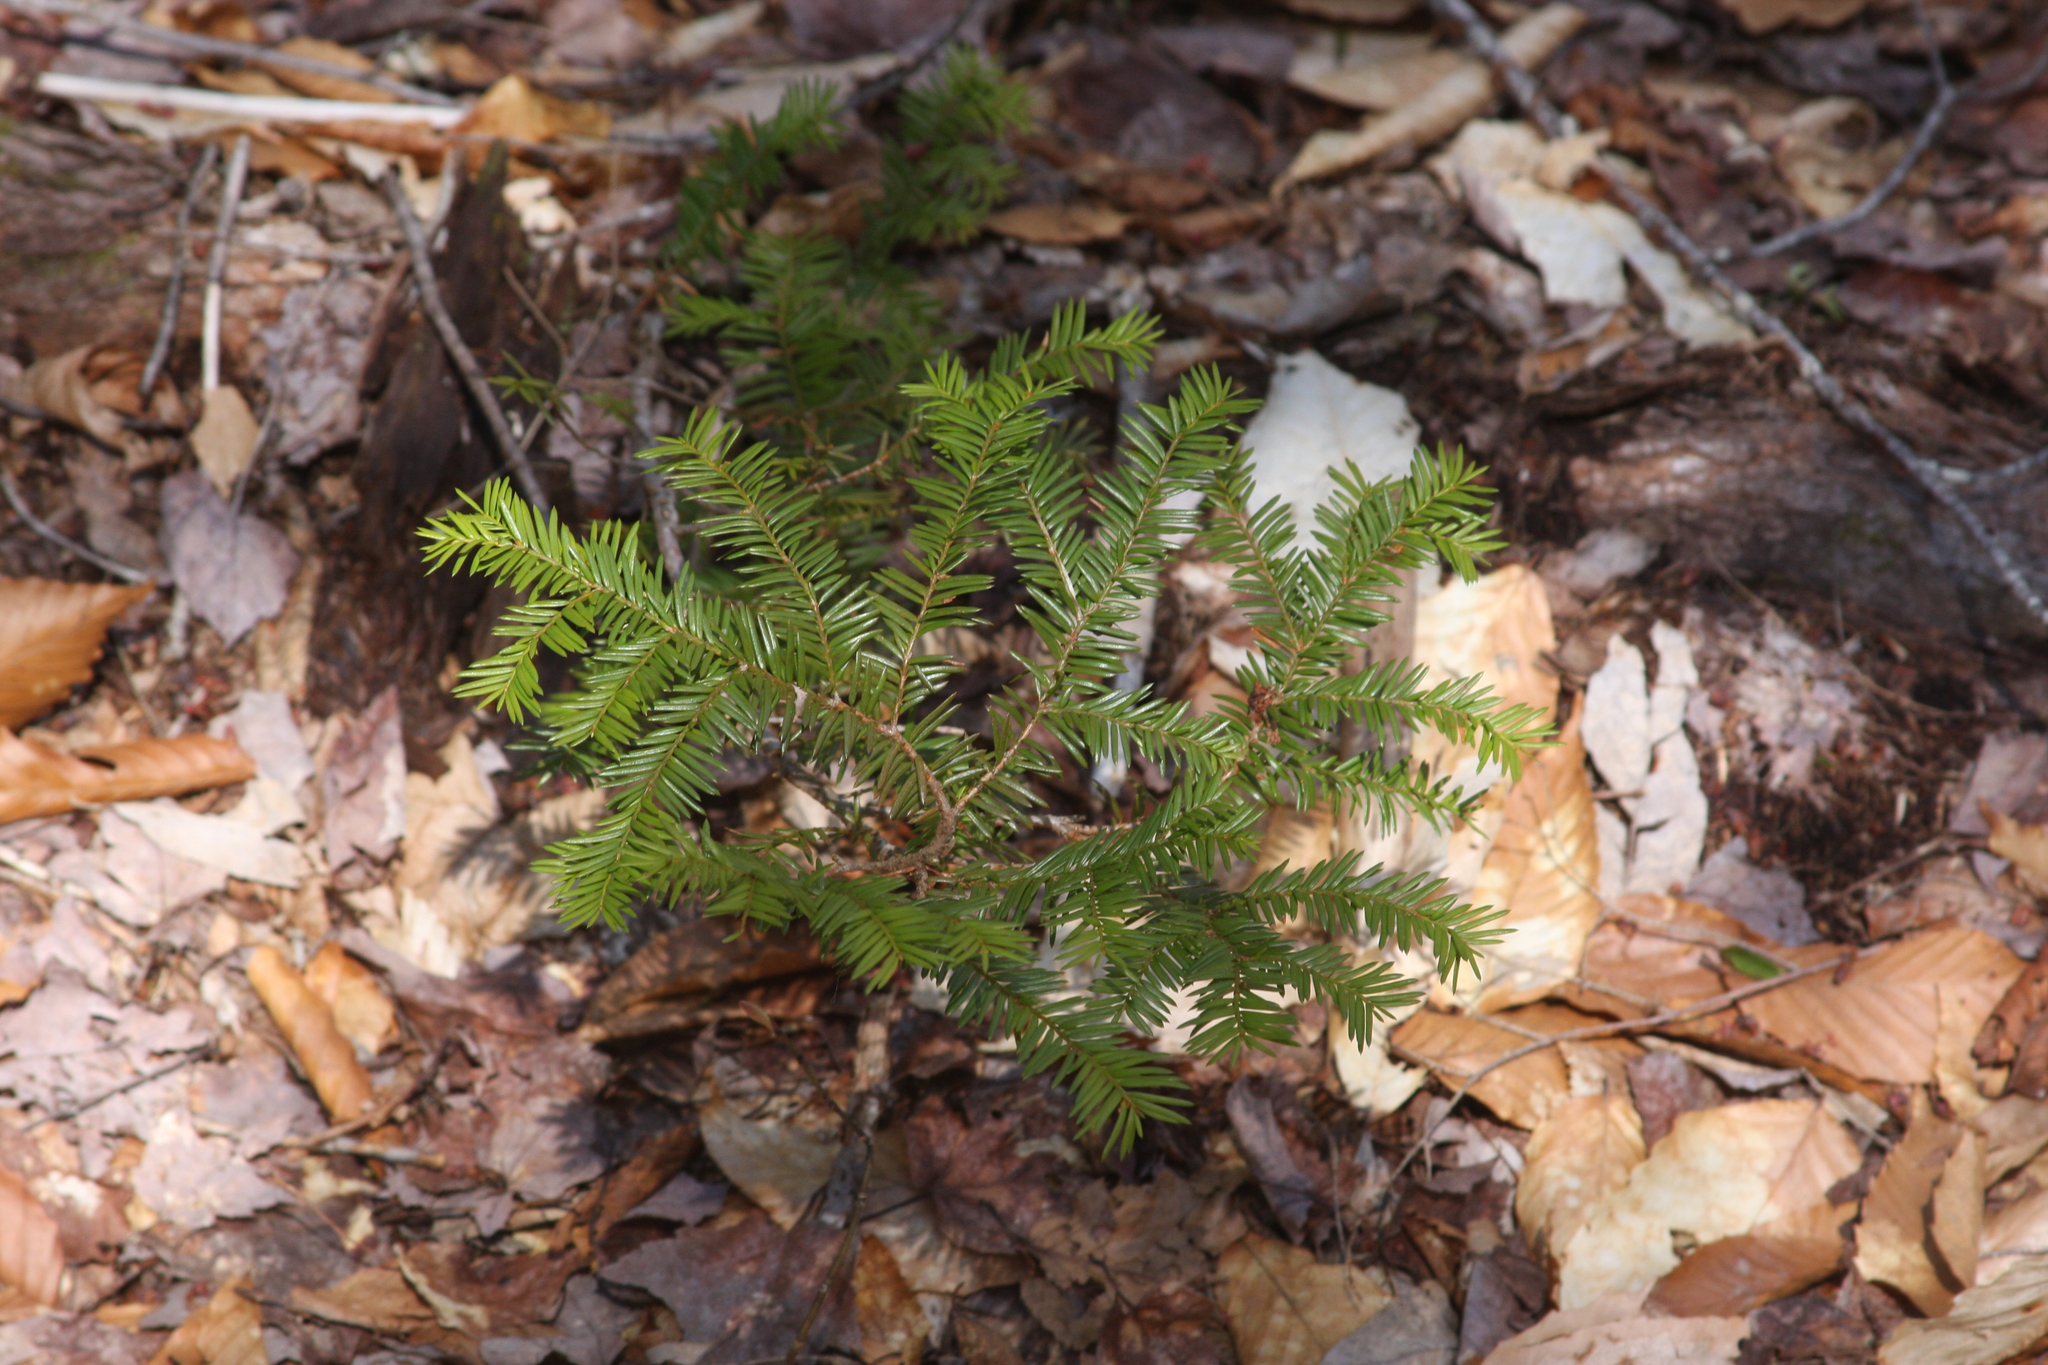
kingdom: Plantae
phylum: Tracheophyta
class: Pinopsida
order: Pinales
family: Taxaceae
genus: Taxus
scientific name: Taxus canadensis
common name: American yew
